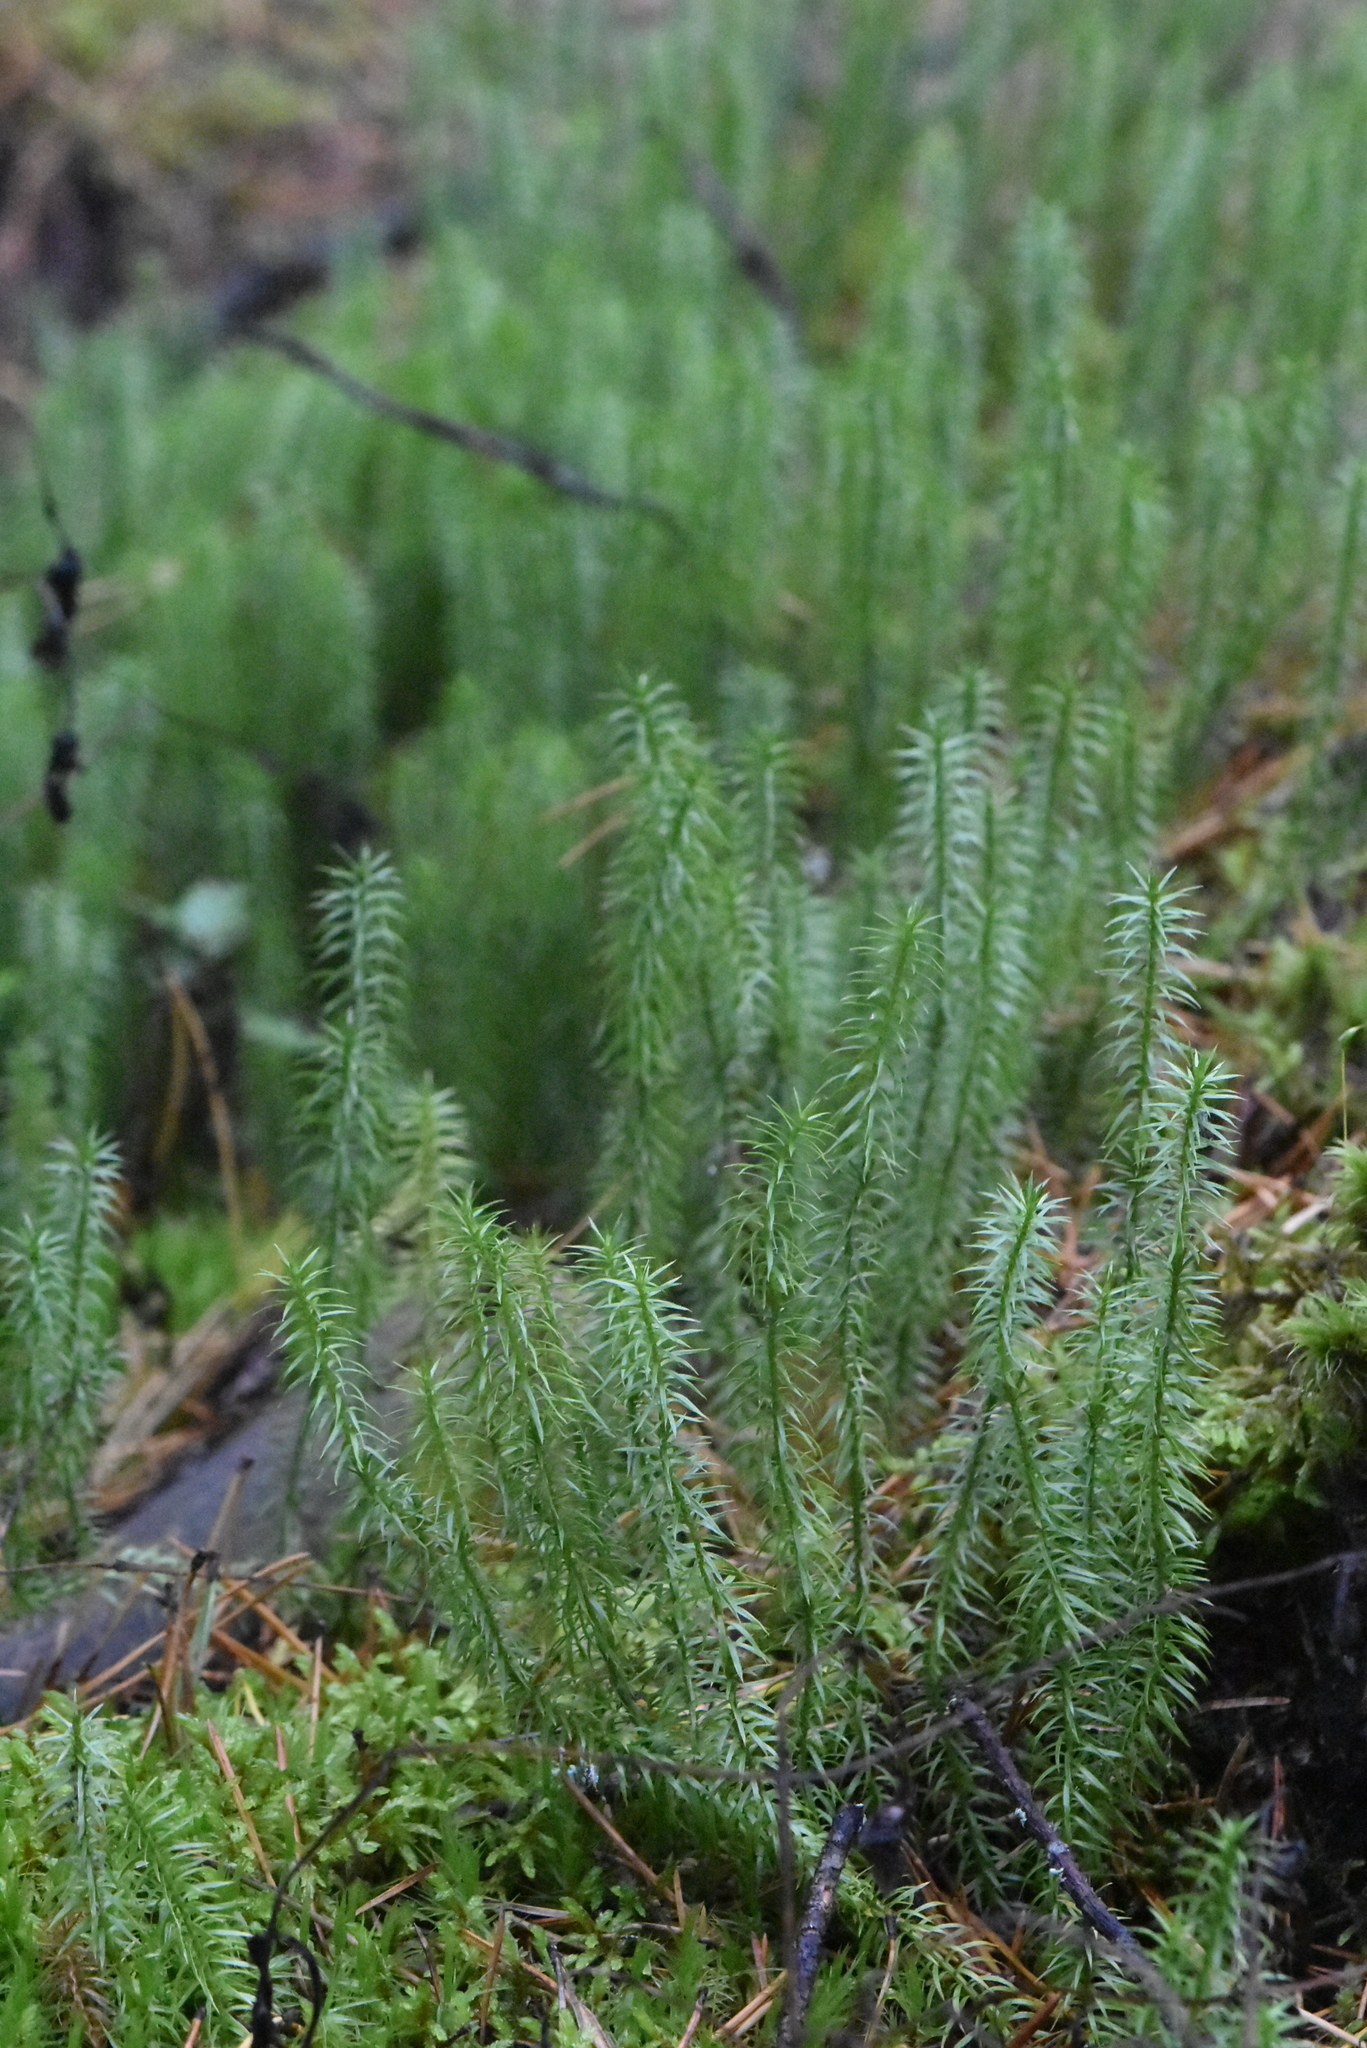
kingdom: Plantae
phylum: Tracheophyta
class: Lycopodiopsida
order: Lycopodiales
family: Lycopodiaceae
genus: Spinulum
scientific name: Spinulum annotinum
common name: Interrupted club-moss
